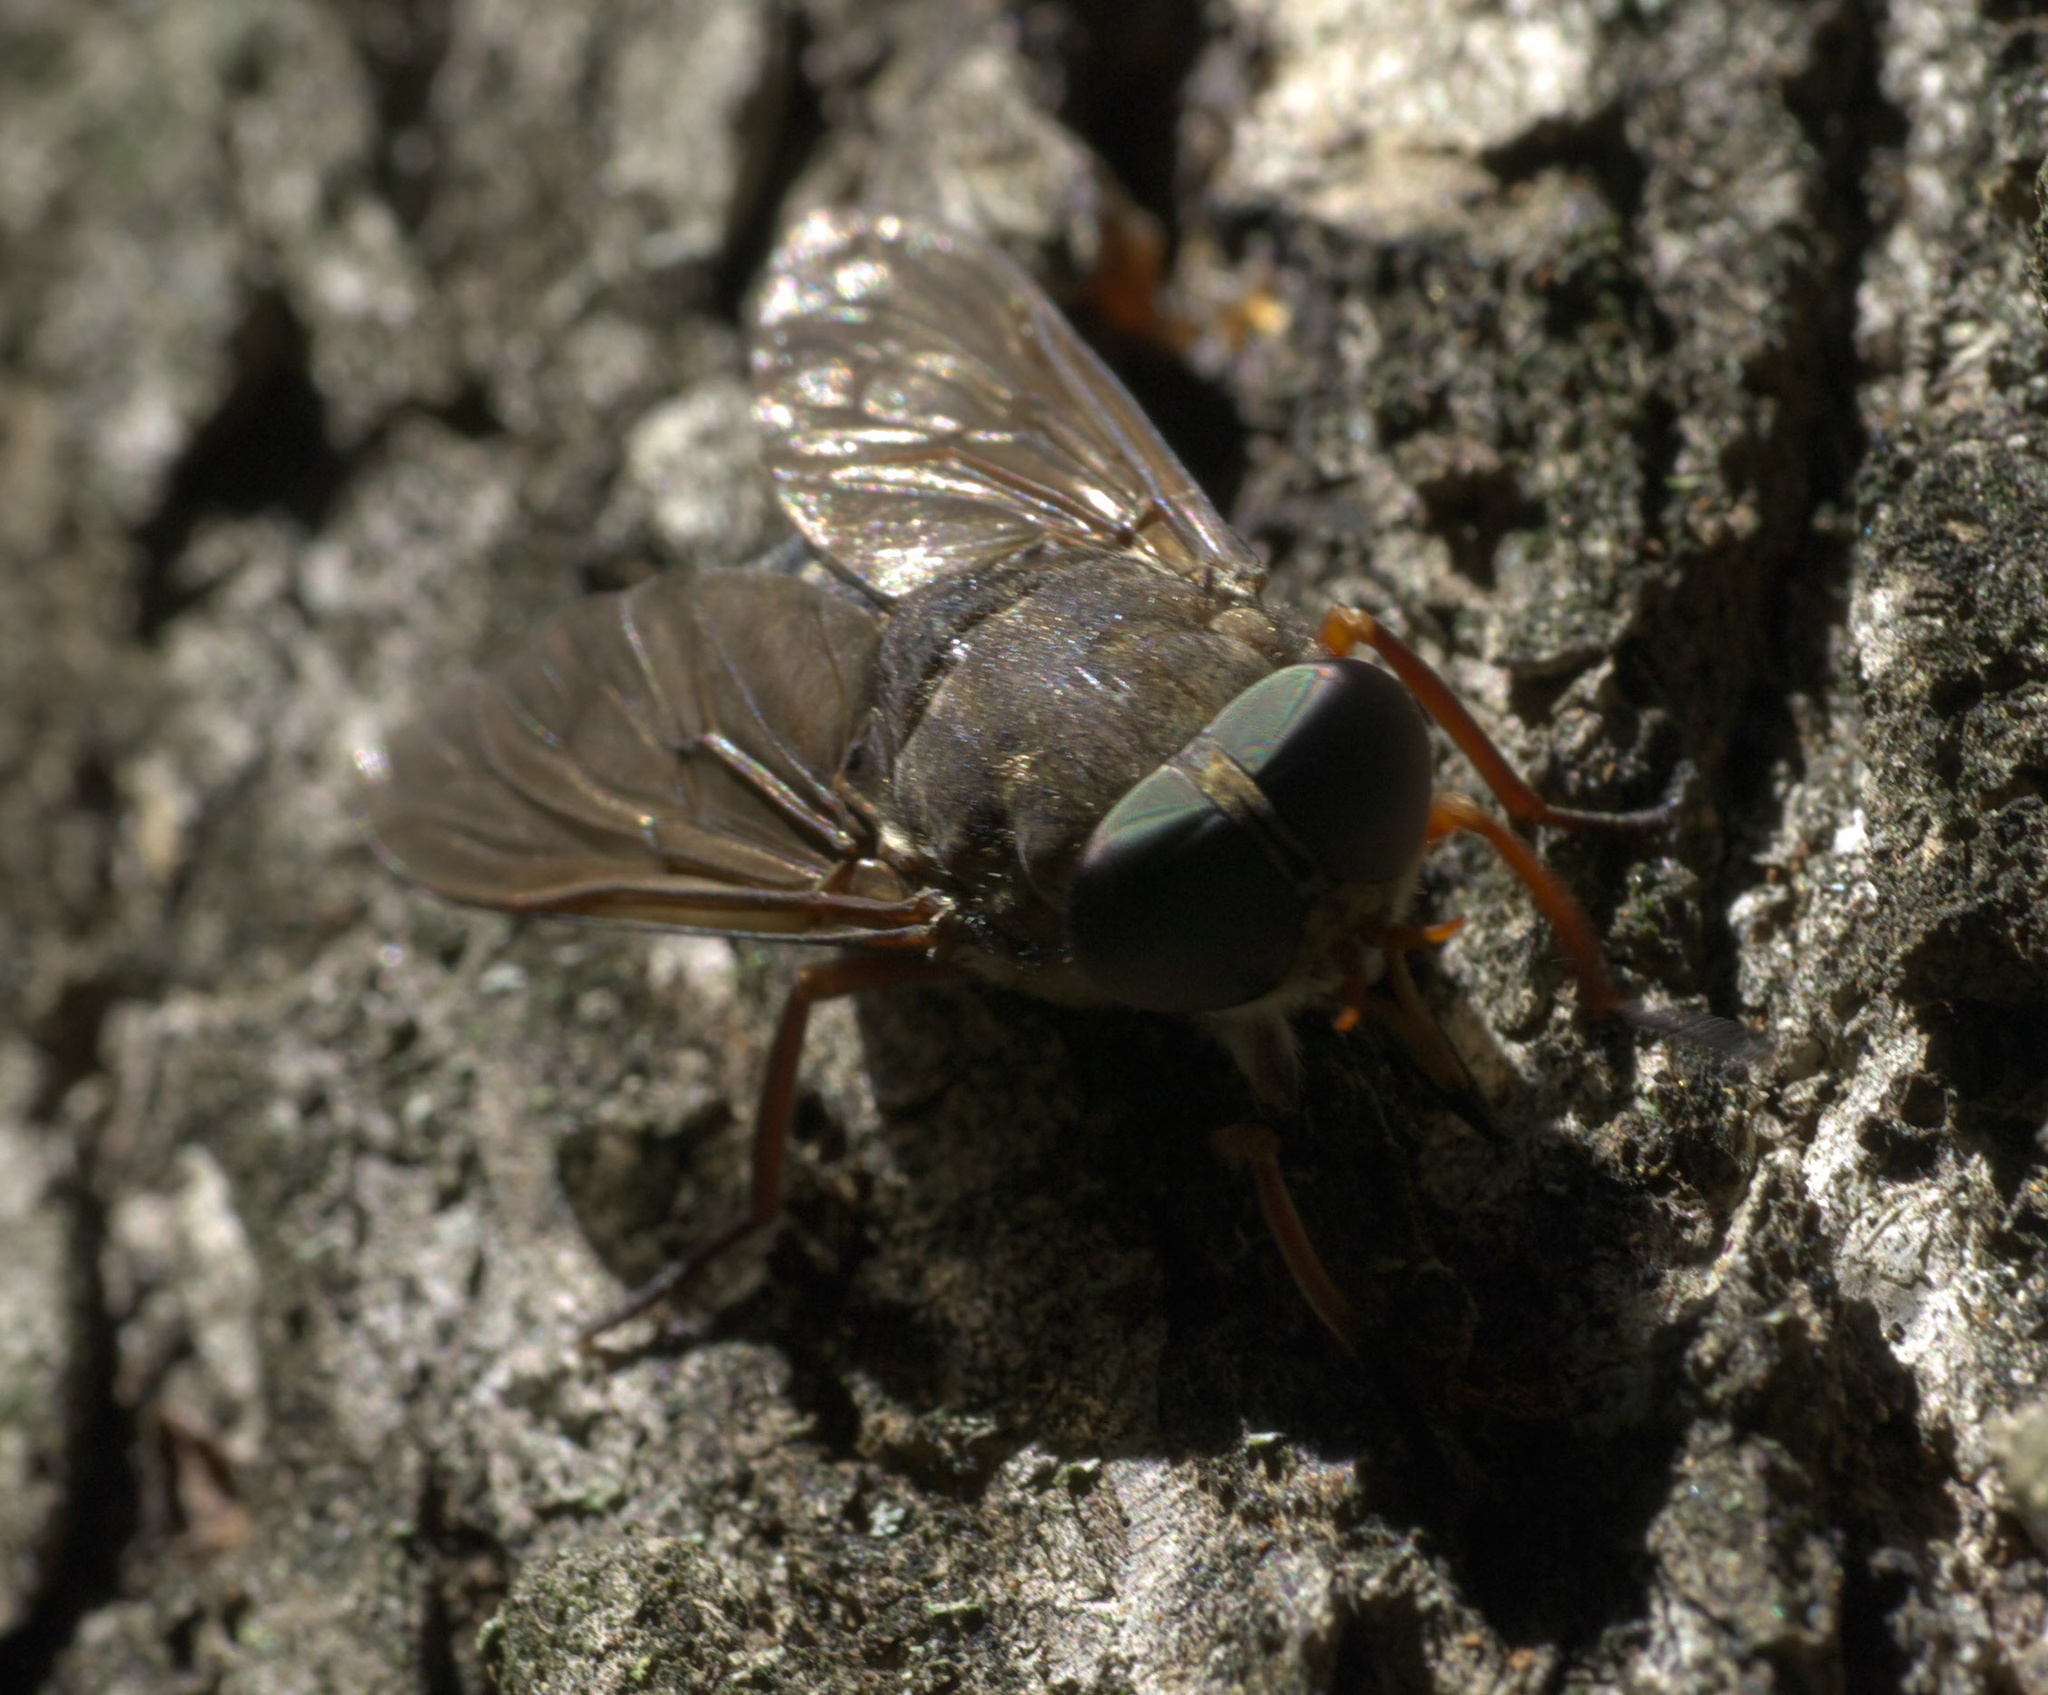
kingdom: Animalia
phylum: Arthropoda
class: Insecta
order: Diptera
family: Tabanidae
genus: Tabanus
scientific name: Tabanus calens
